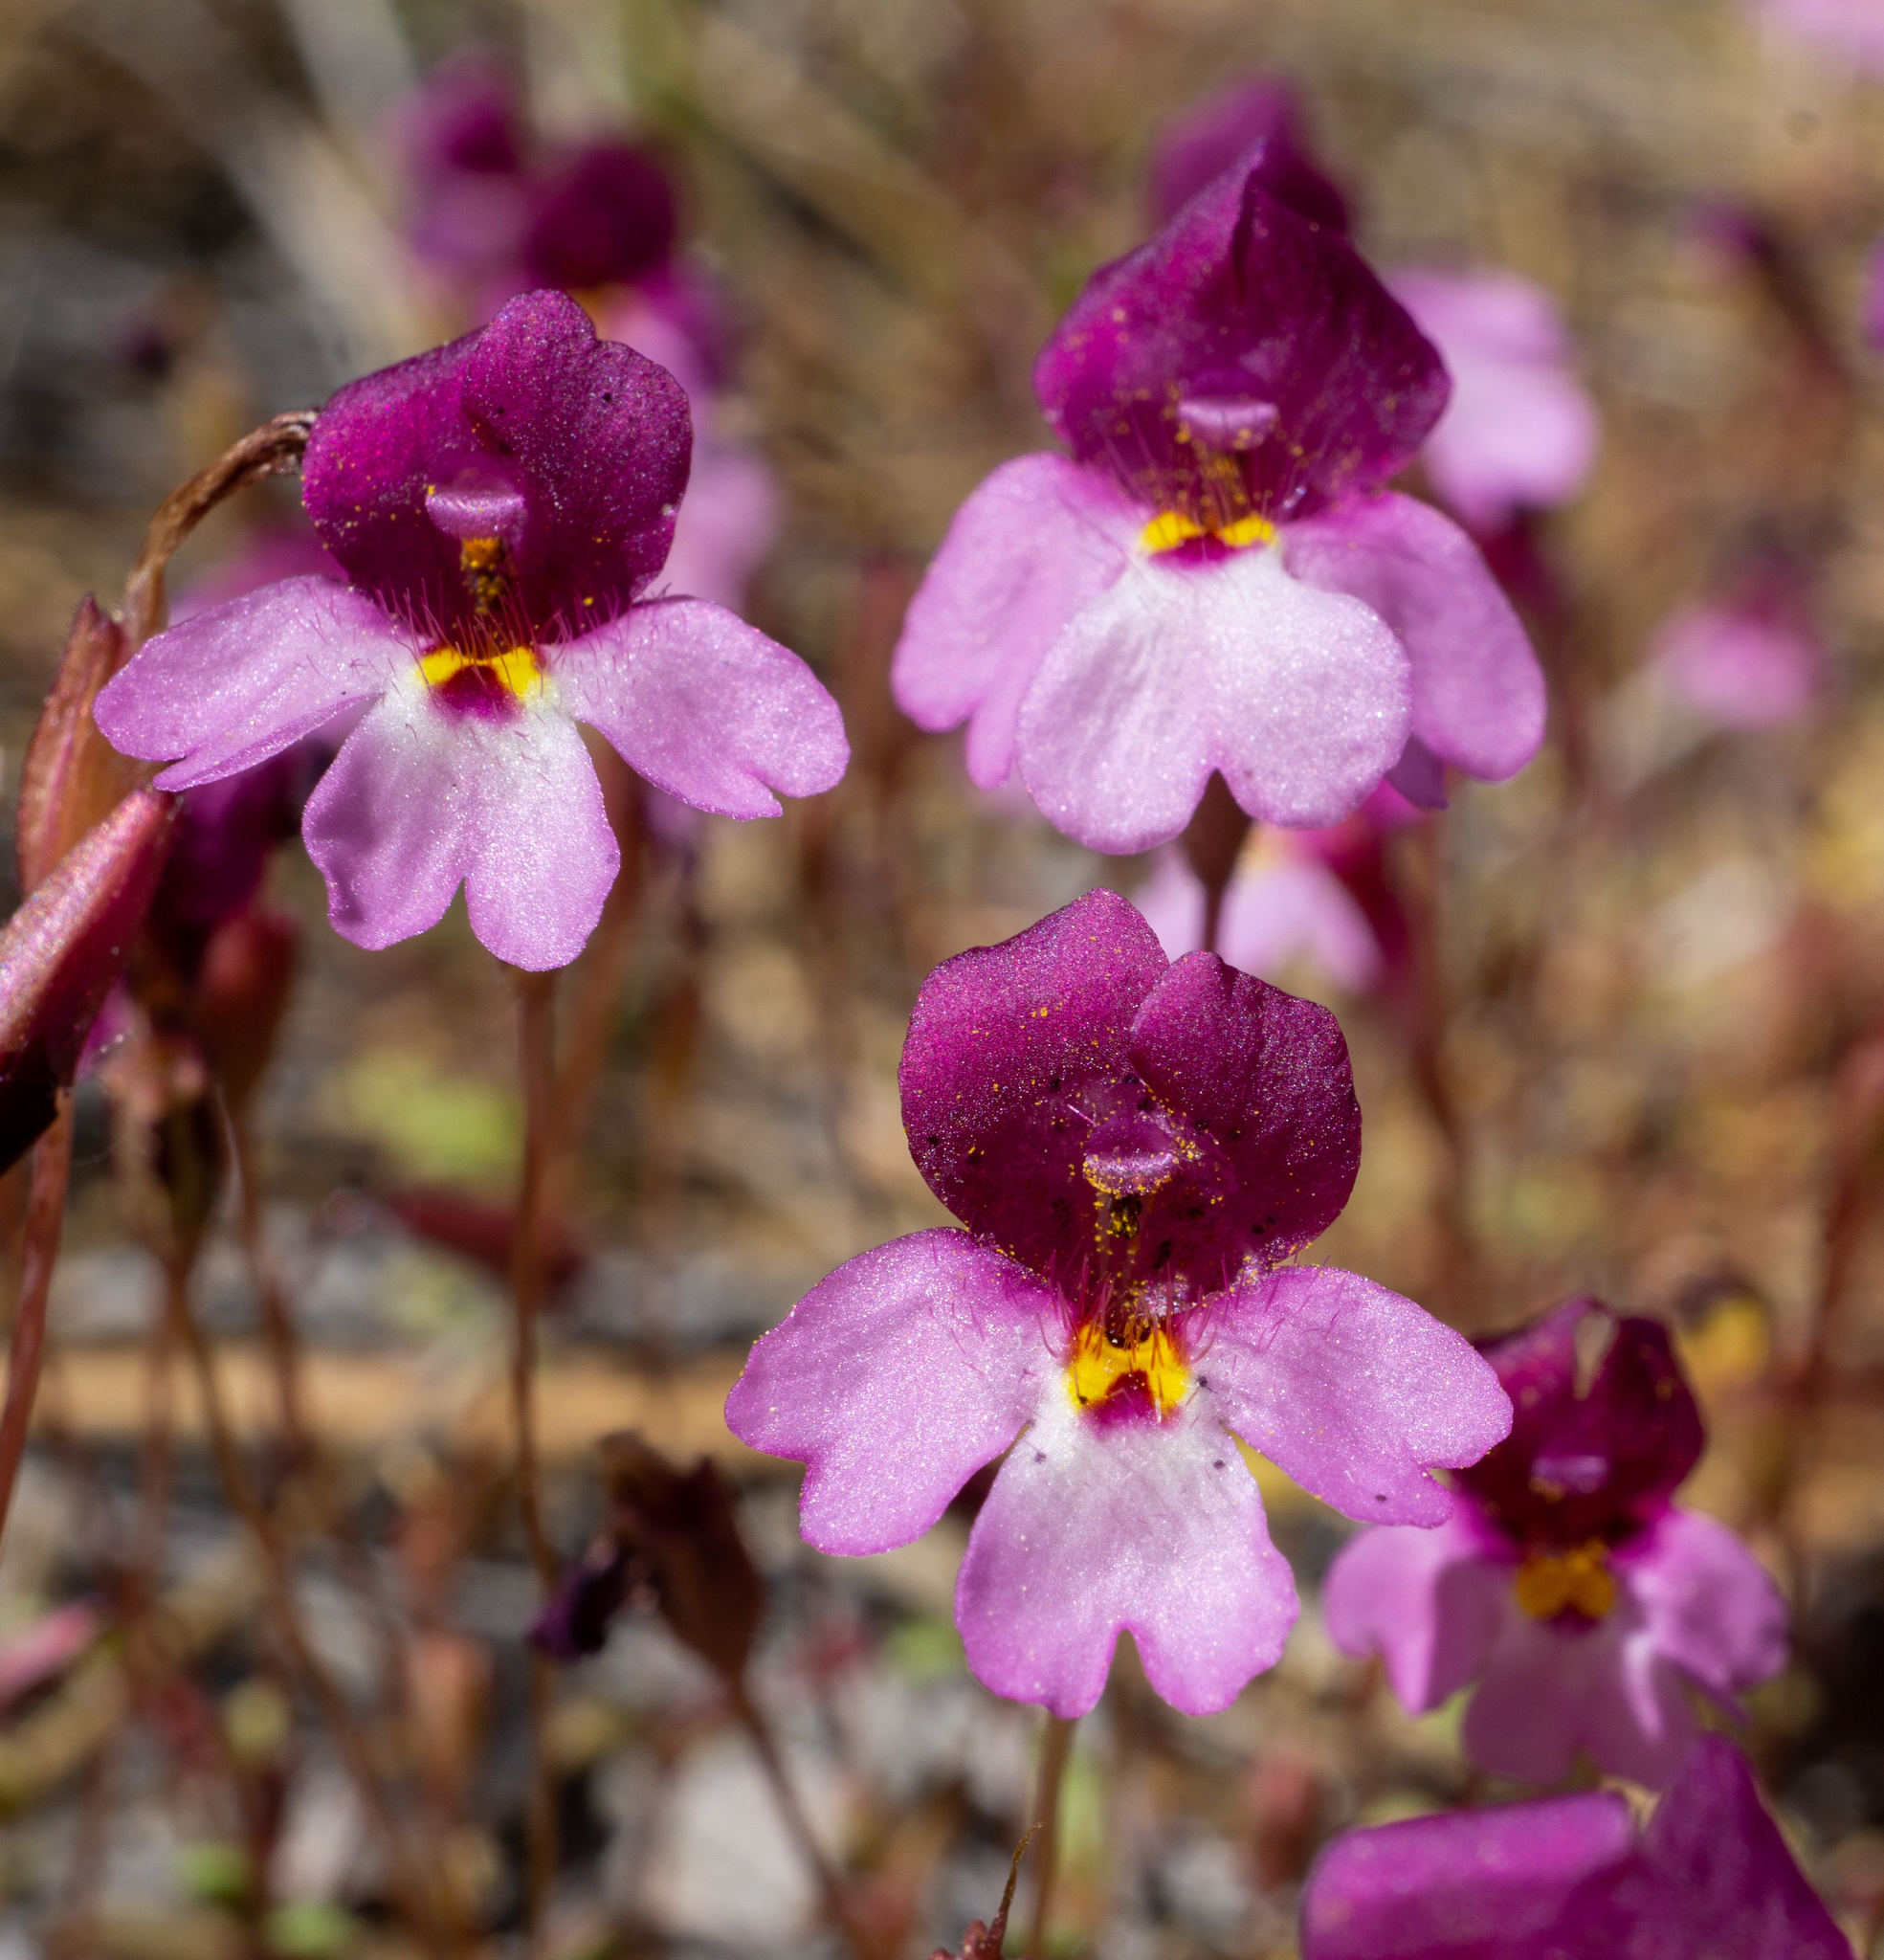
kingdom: Plantae
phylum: Tracheophyta
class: Magnoliopsida
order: Lamiales
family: Phrymaceae
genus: Erythranthe
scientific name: Erythranthe purpurea
